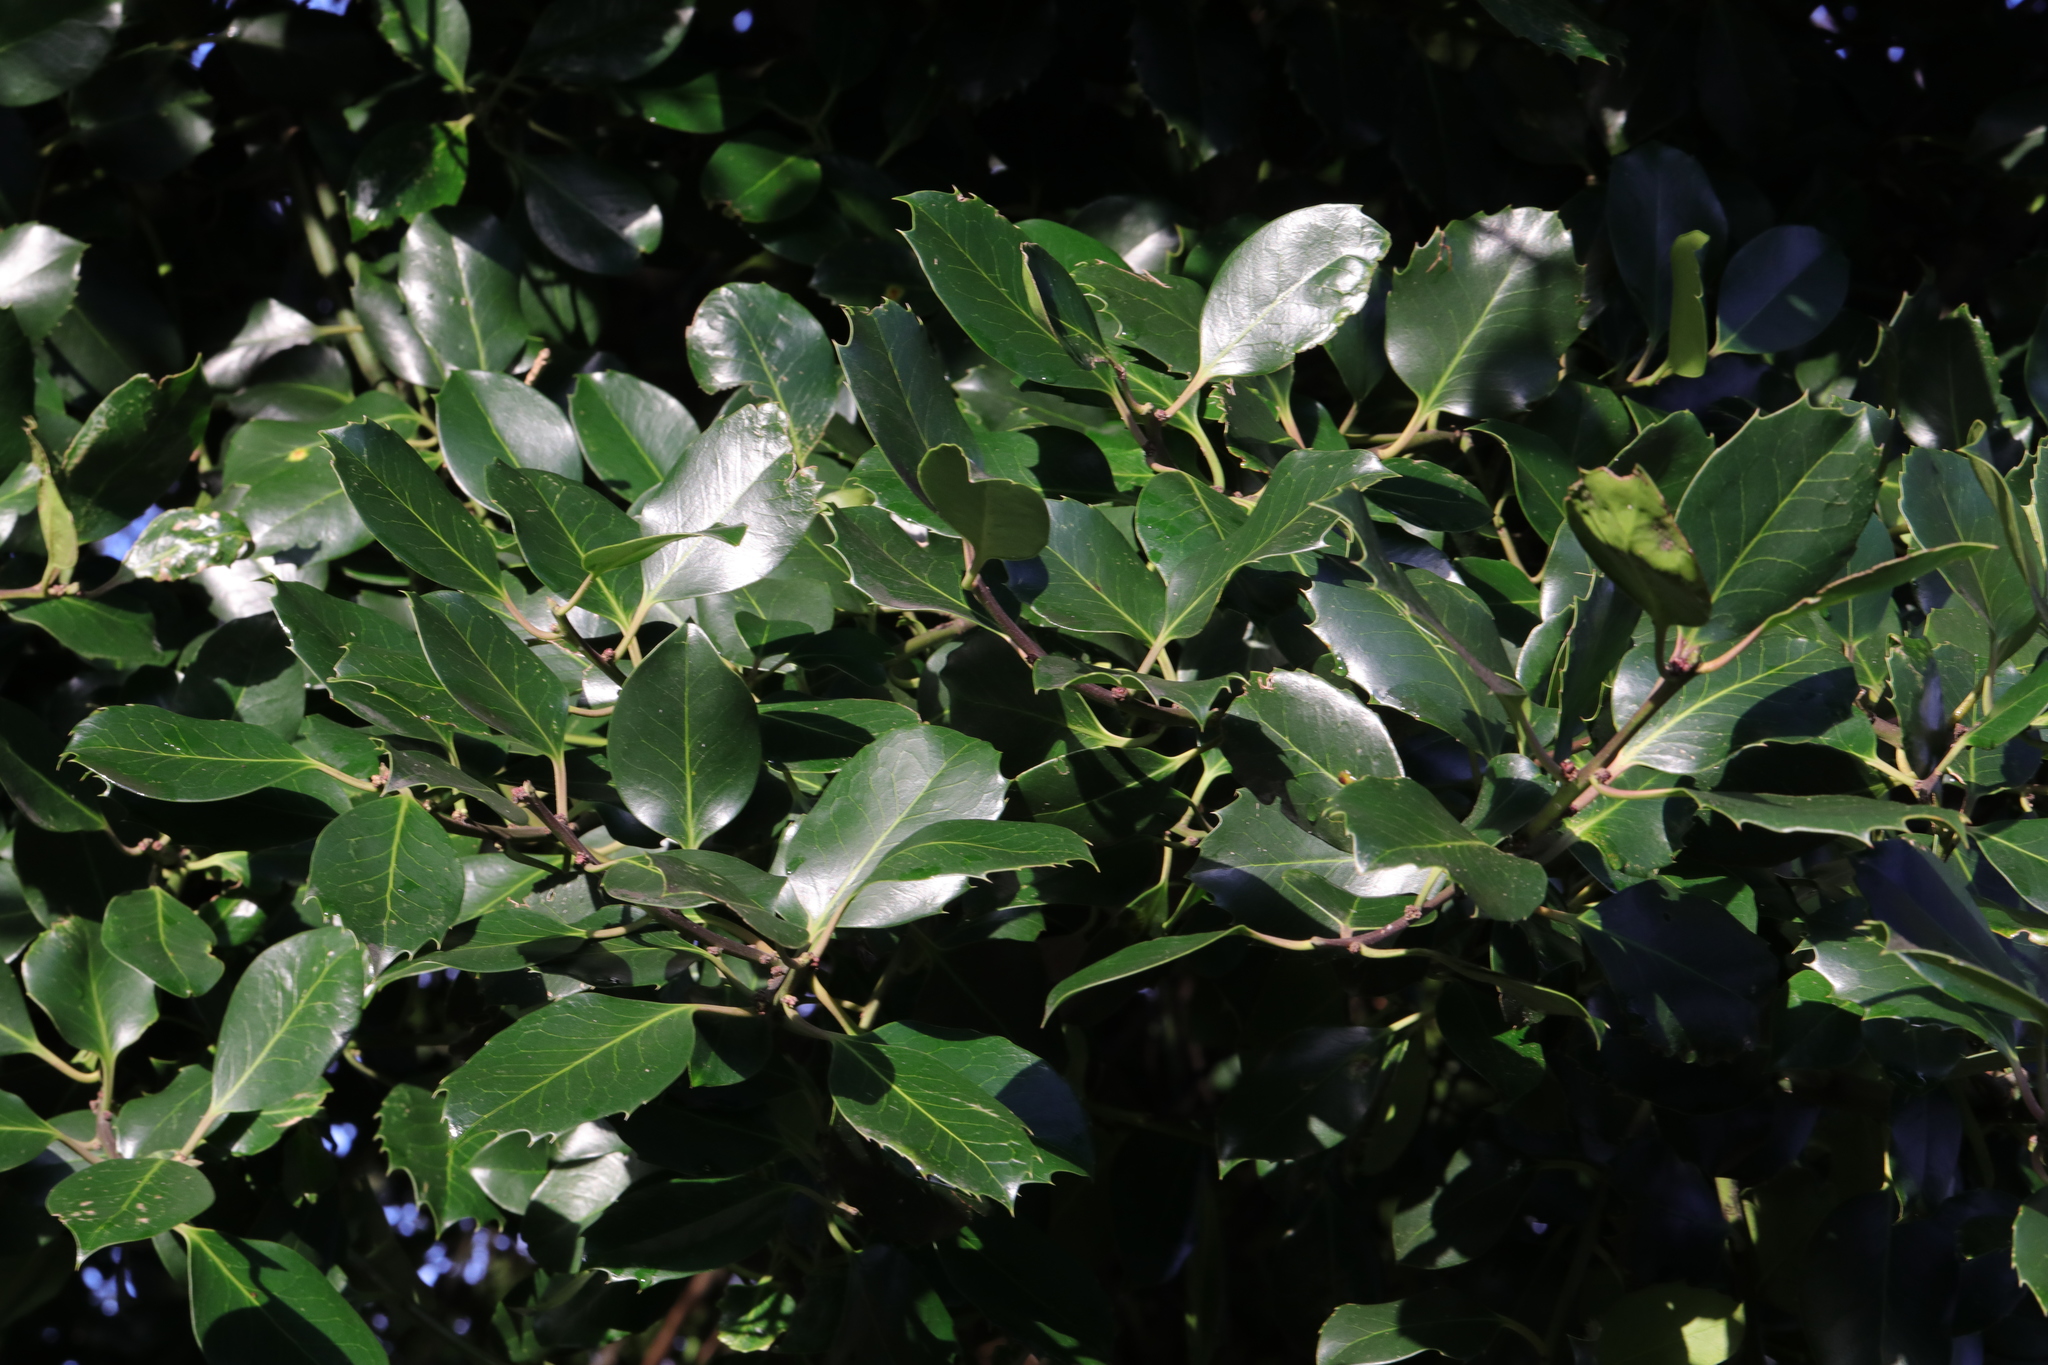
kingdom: Plantae
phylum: Tracheophyta
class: Magnoliopsida
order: Aquifoliales
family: Aquifoliaceae
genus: Ilex
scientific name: Ilex aquifolium
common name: English holly
